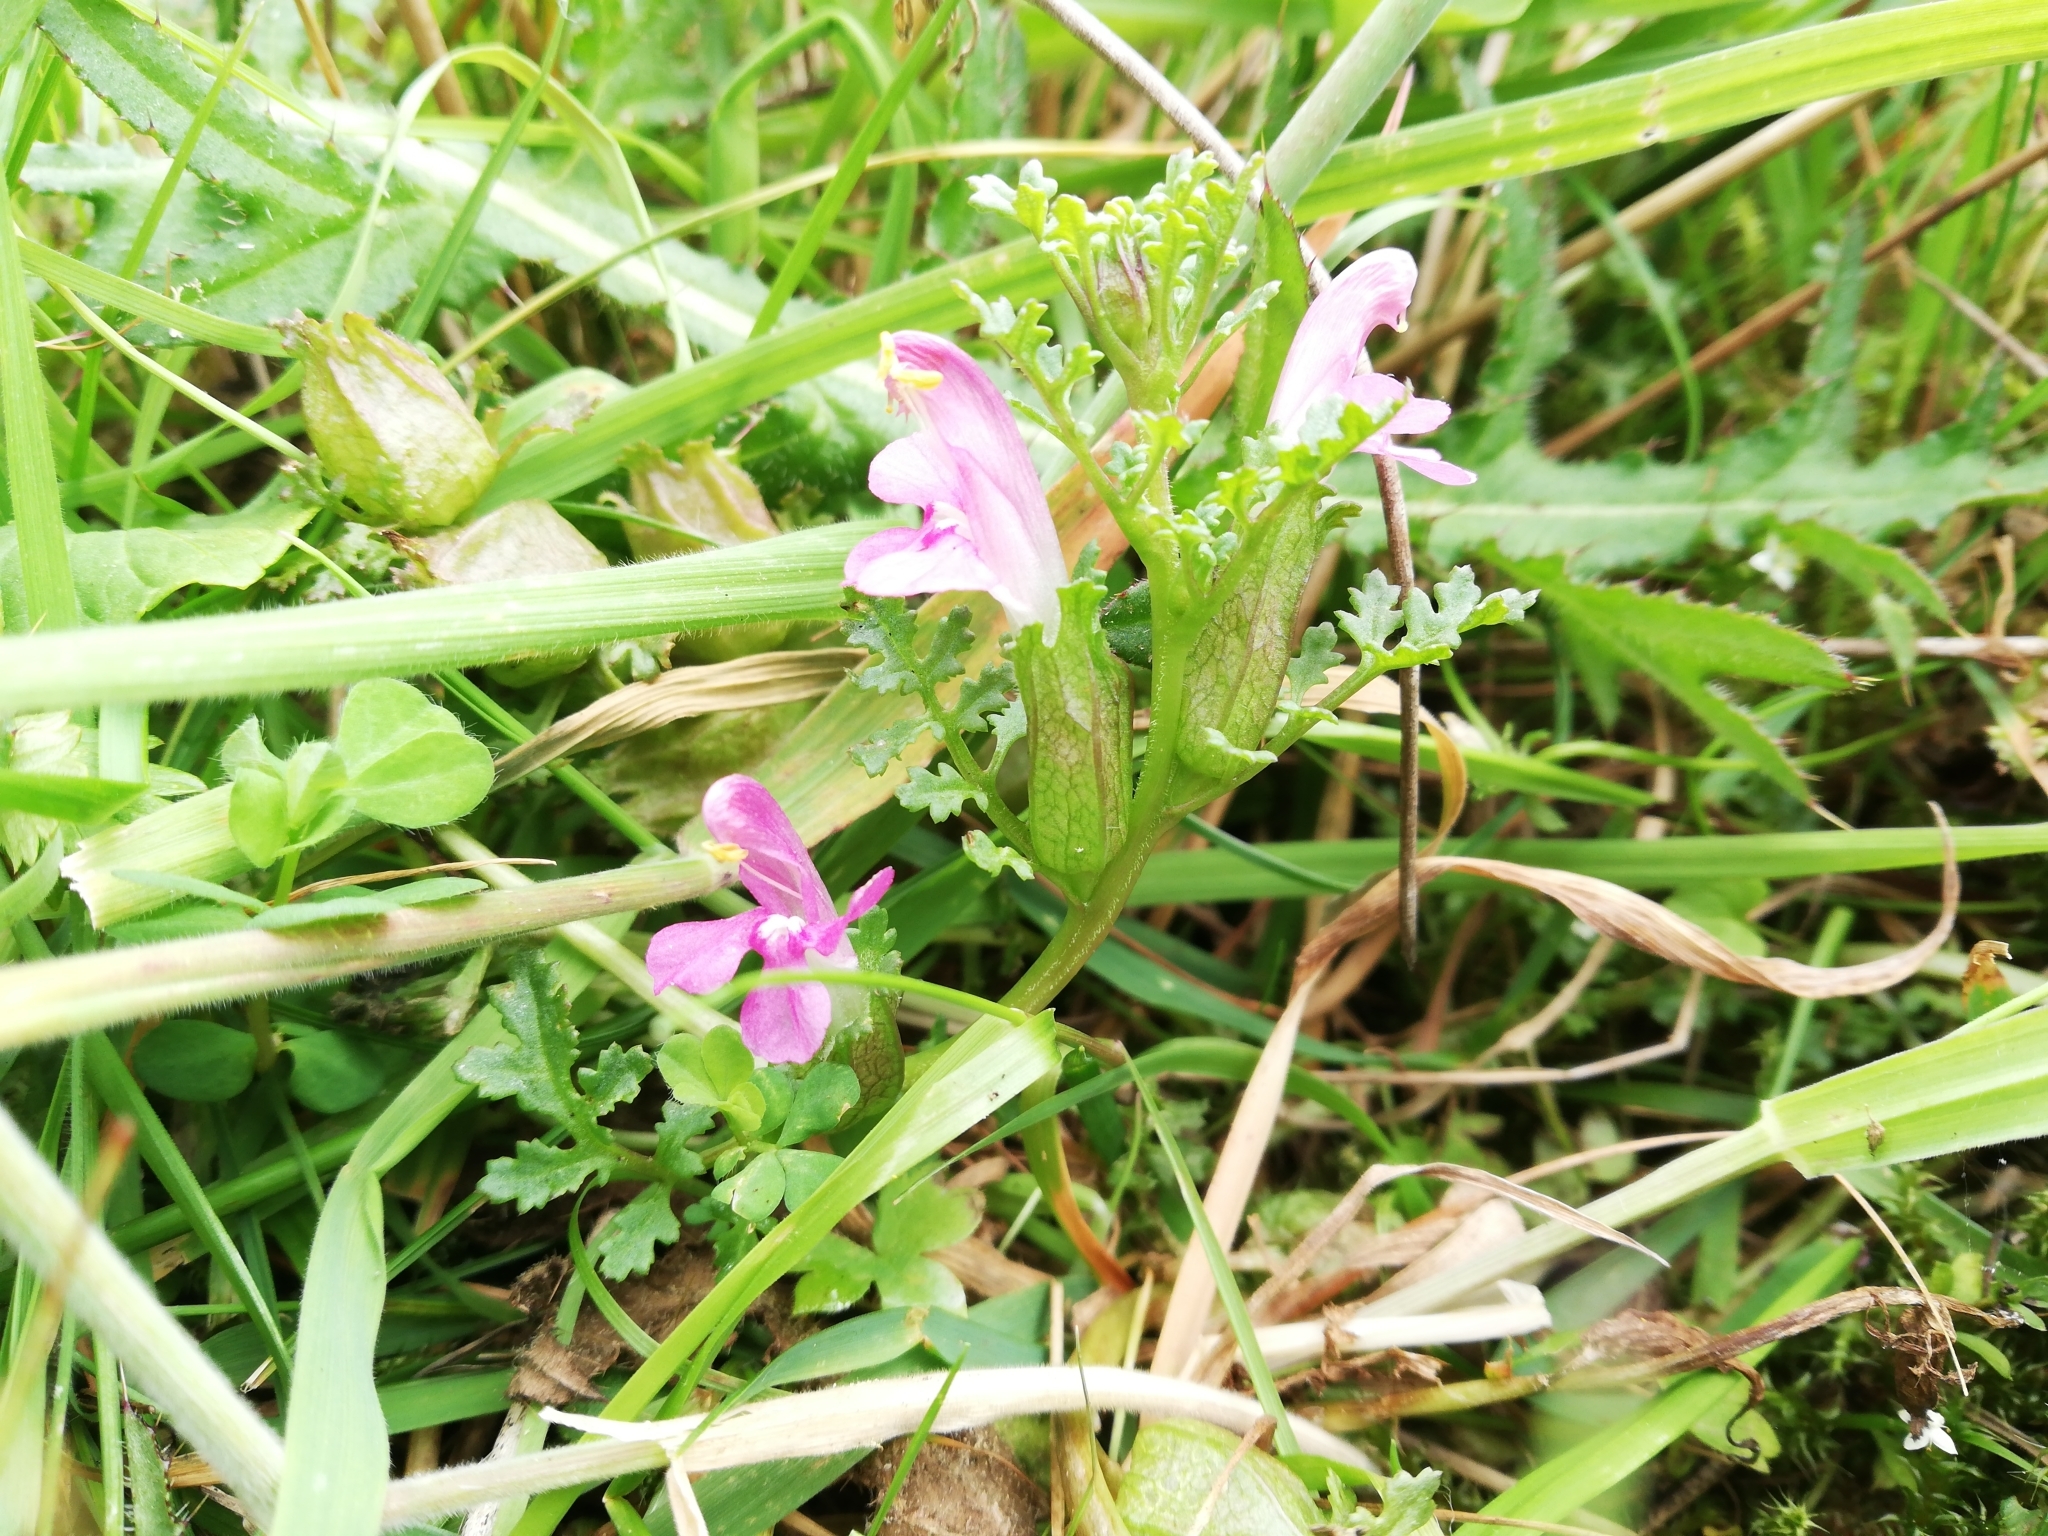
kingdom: Plantae
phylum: Tracheophyta
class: Magnoliopsida
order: Lamiales
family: Orobanchaceae
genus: Pedicularis
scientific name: Pedicularis sylvatica
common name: Lousewort
